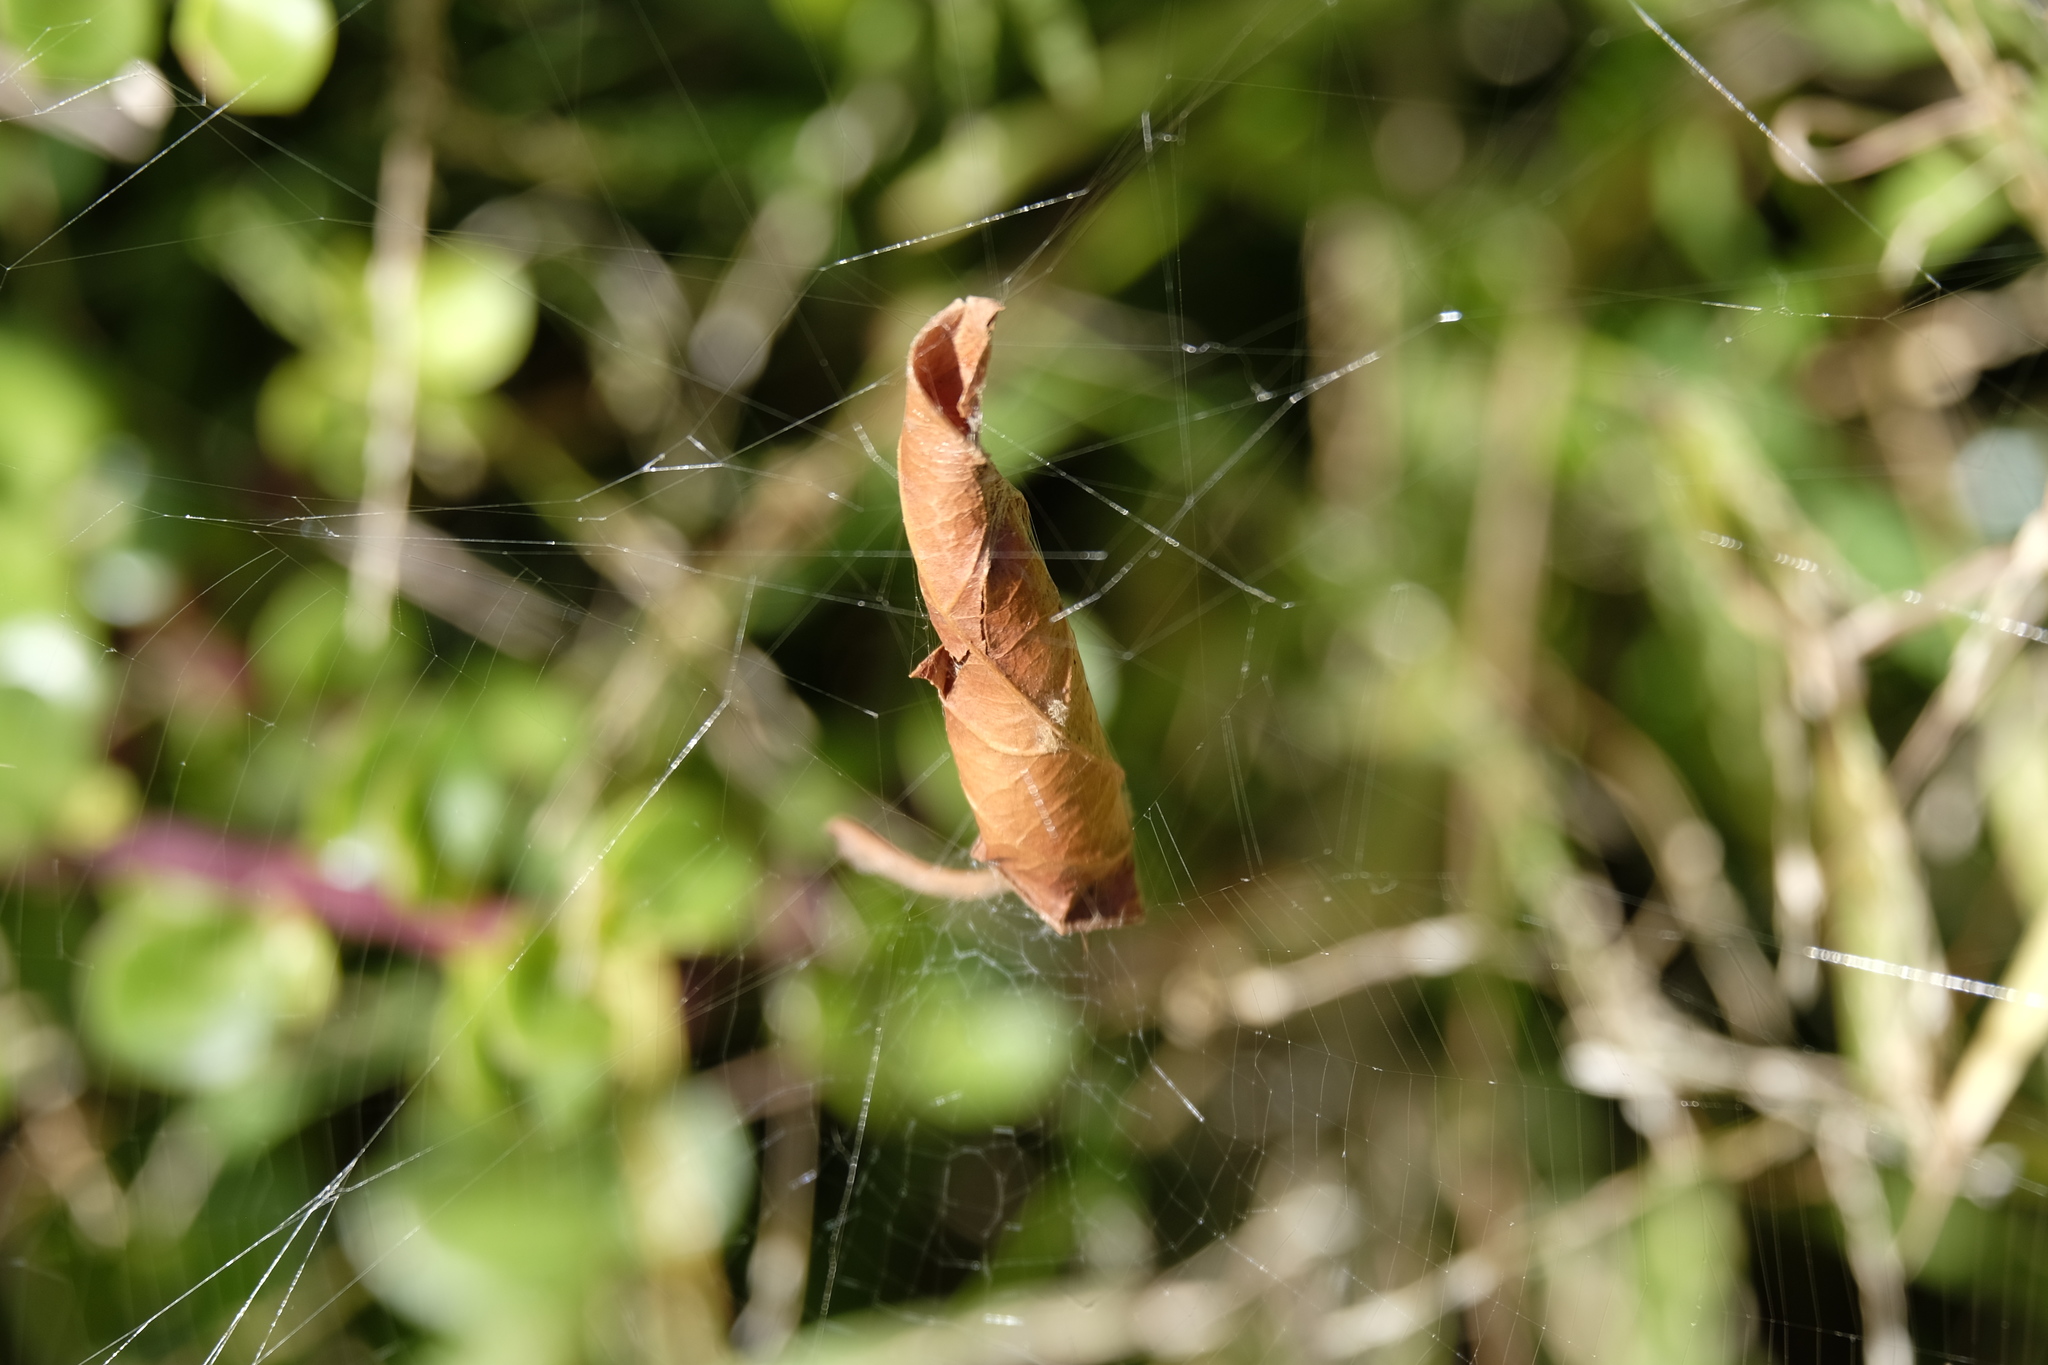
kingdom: Animalia
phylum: Arthropoda
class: Arachnida
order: Araneae
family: Araneidae
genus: Phonognatha
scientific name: Phonognatha graeffei
